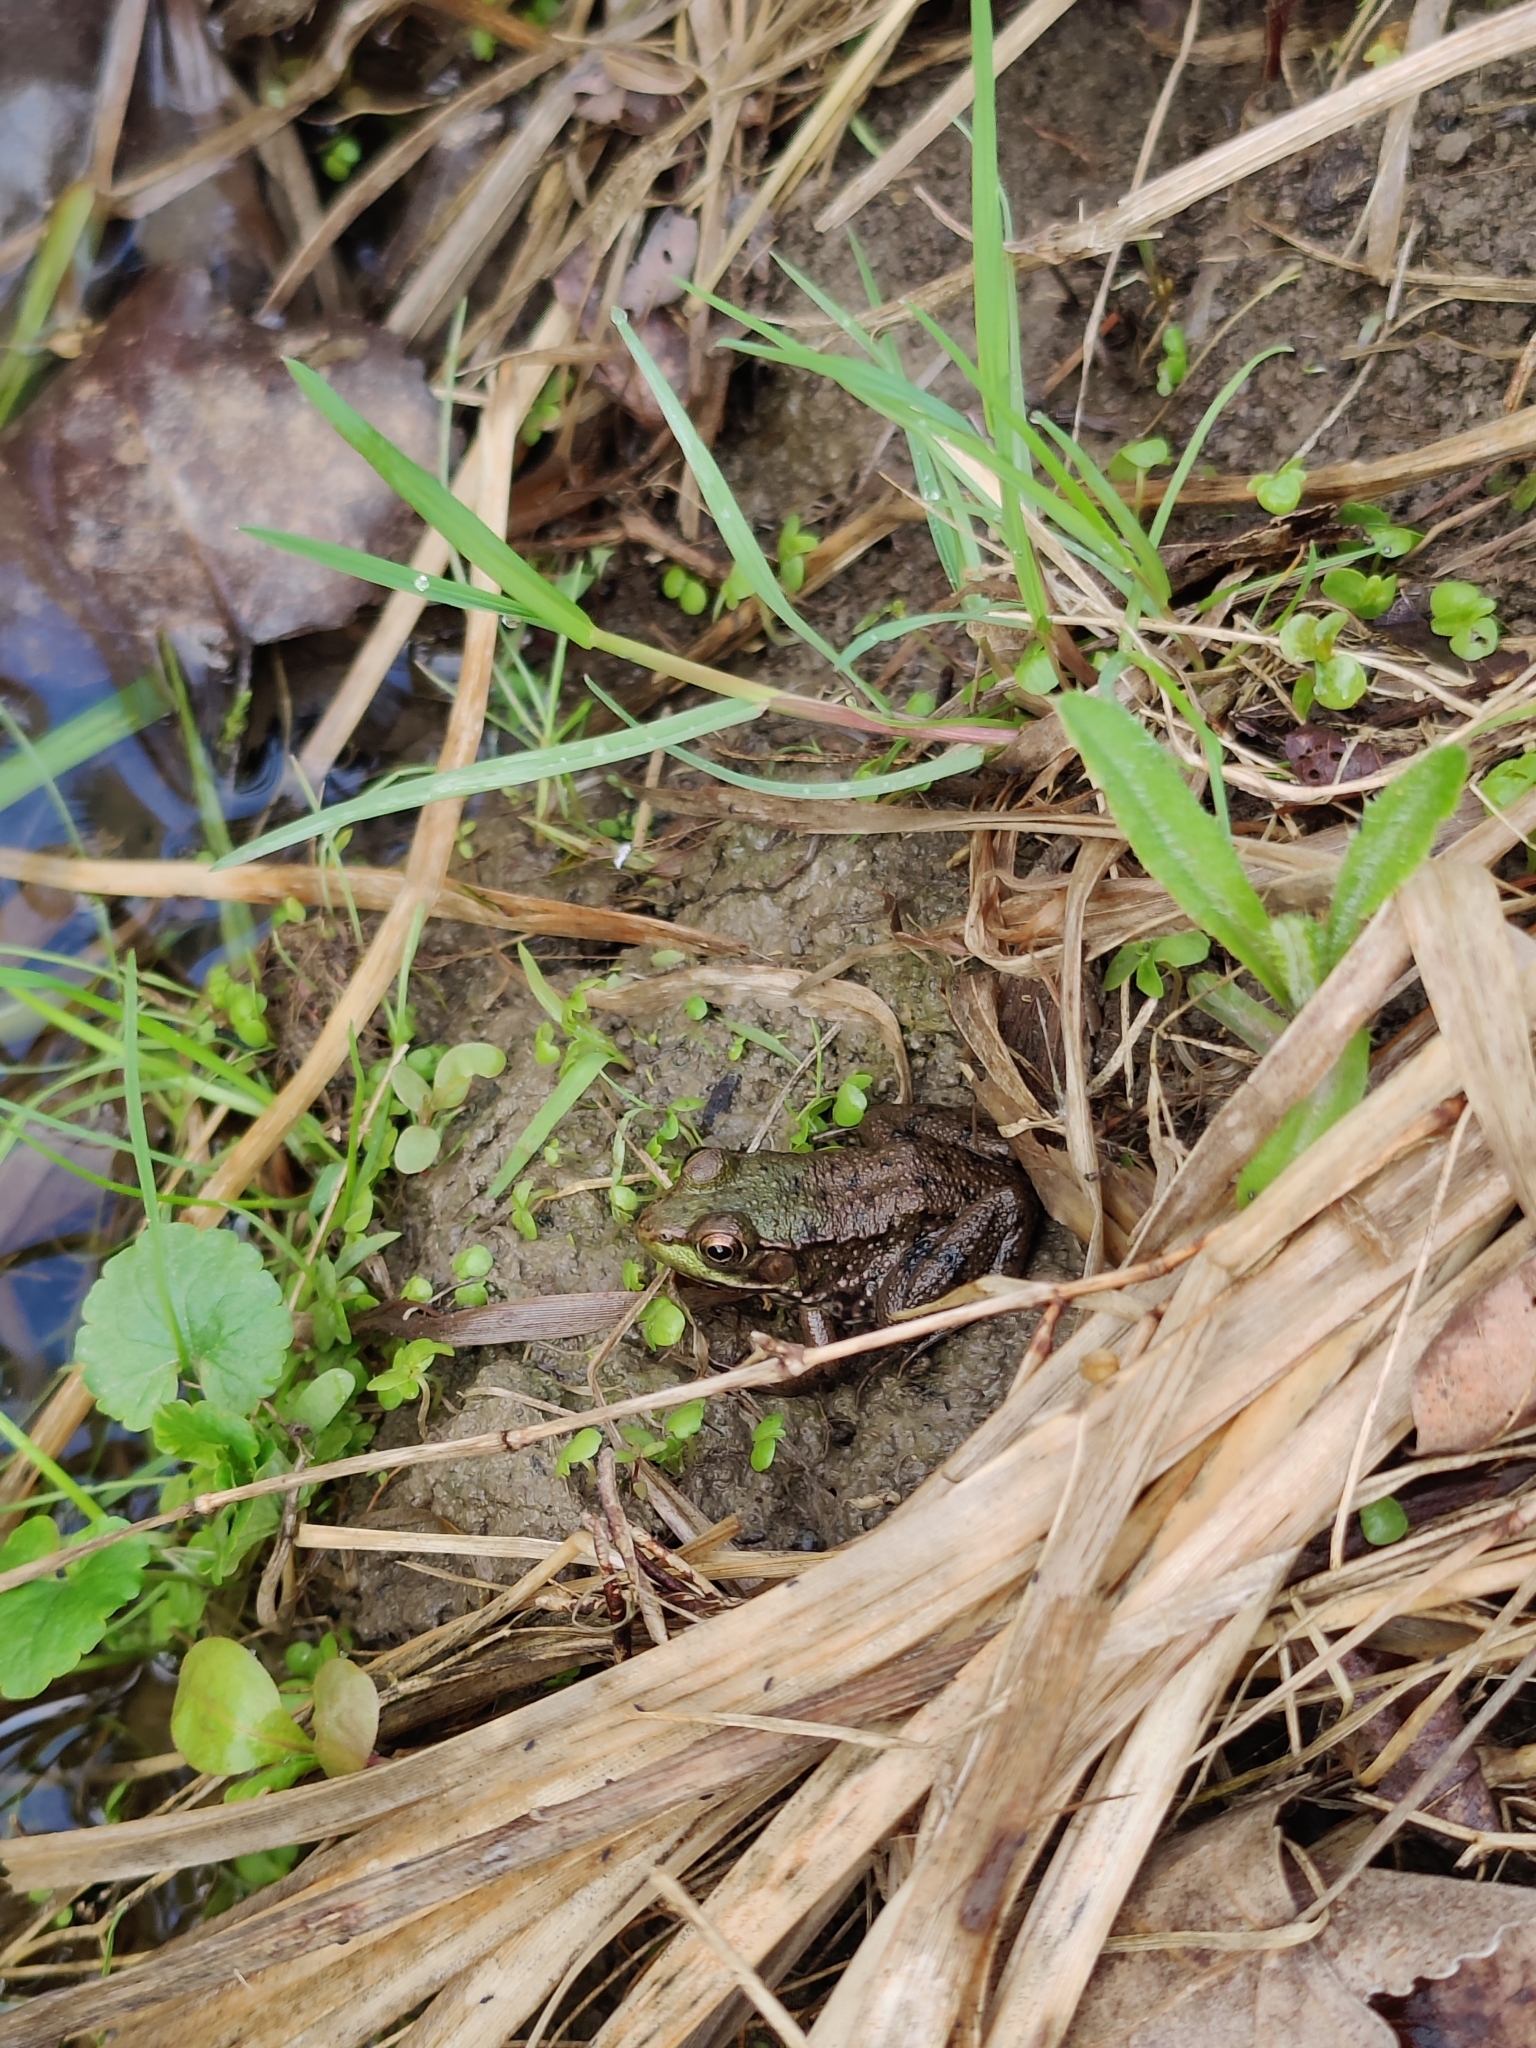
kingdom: Animalia
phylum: Chordata
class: Amphibia
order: Anura
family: Ranidae
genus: Lithobates
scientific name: Lithobates clamitans
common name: Green frog
